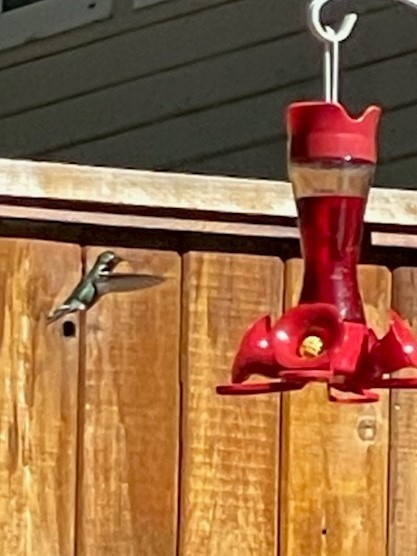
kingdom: Animalia
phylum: Chordata
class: Aves
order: Apodiformes
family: Trochilidae
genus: Calypte
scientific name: Calypte anna
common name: Anna's hummingbird
